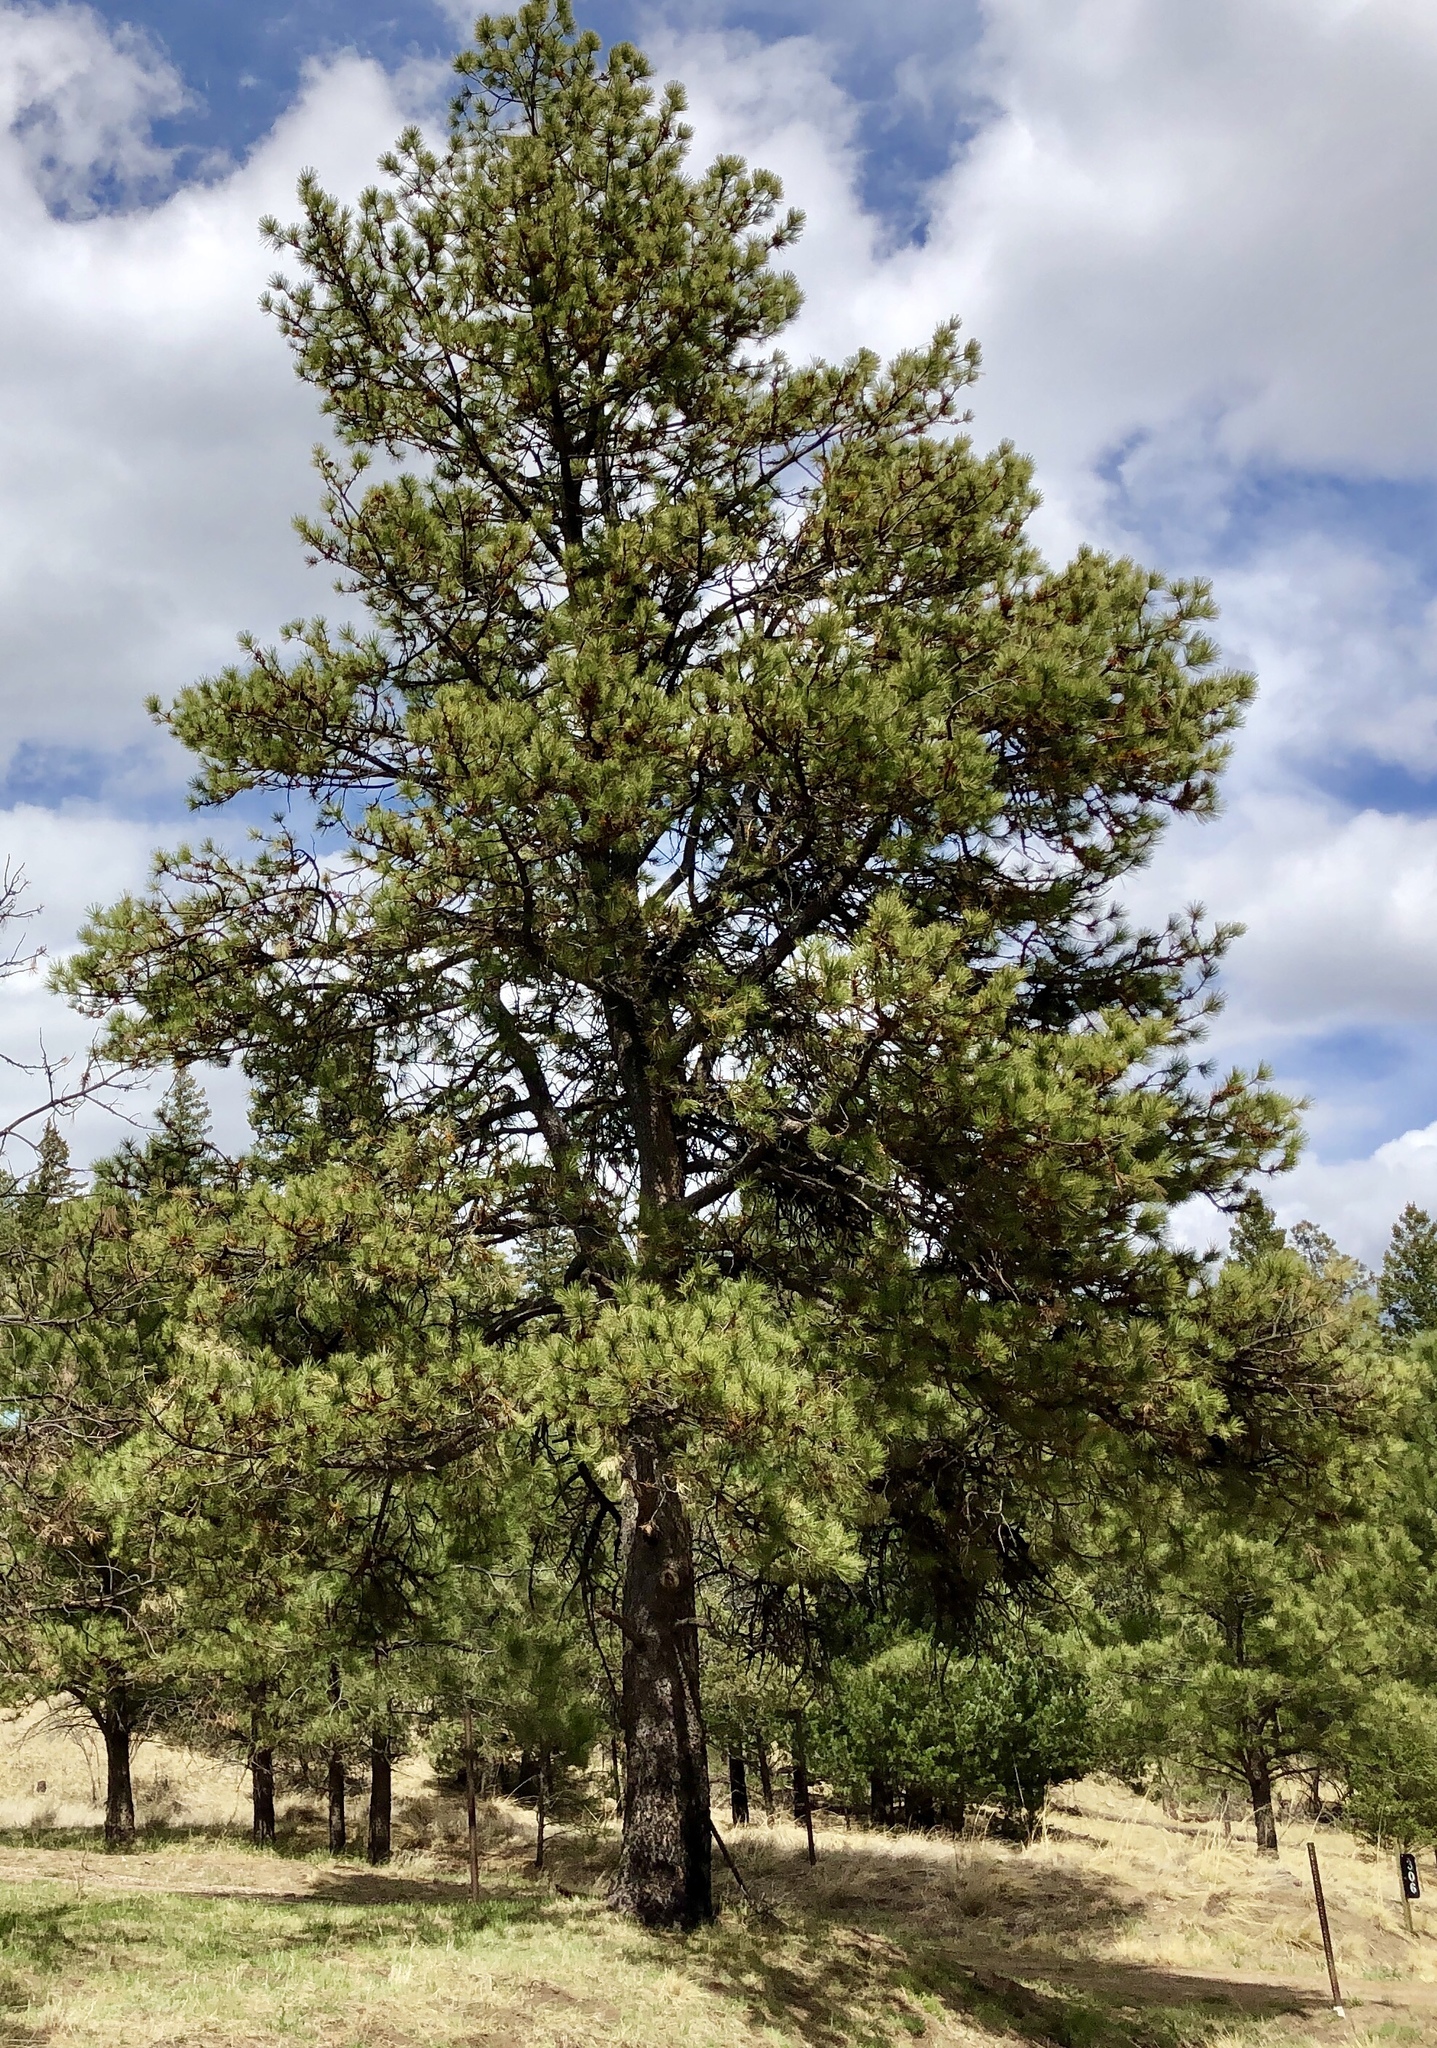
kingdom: Plantae
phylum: Tracheophyta
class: Pinopsida
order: Pinales
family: Pinaceae
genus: Pinus
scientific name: Pinus ponderosa
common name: Western yellow-pine
